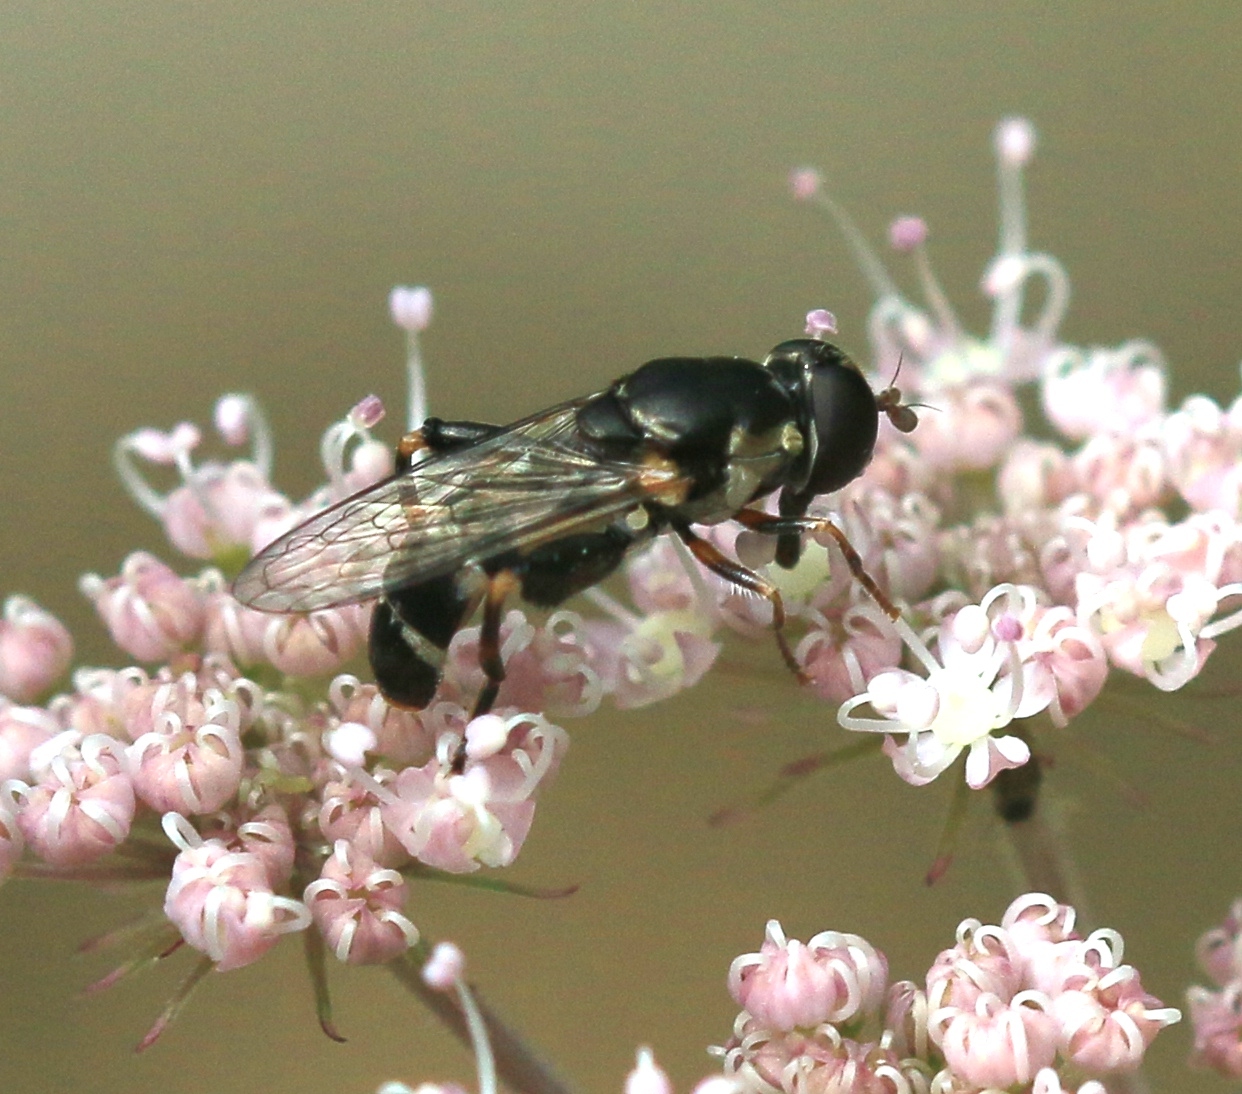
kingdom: Animalia
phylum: Arthropoda
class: Insecta
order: Diptera
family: Syrphidae
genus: Syritta
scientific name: Syritta pipiens
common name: Hover fly
